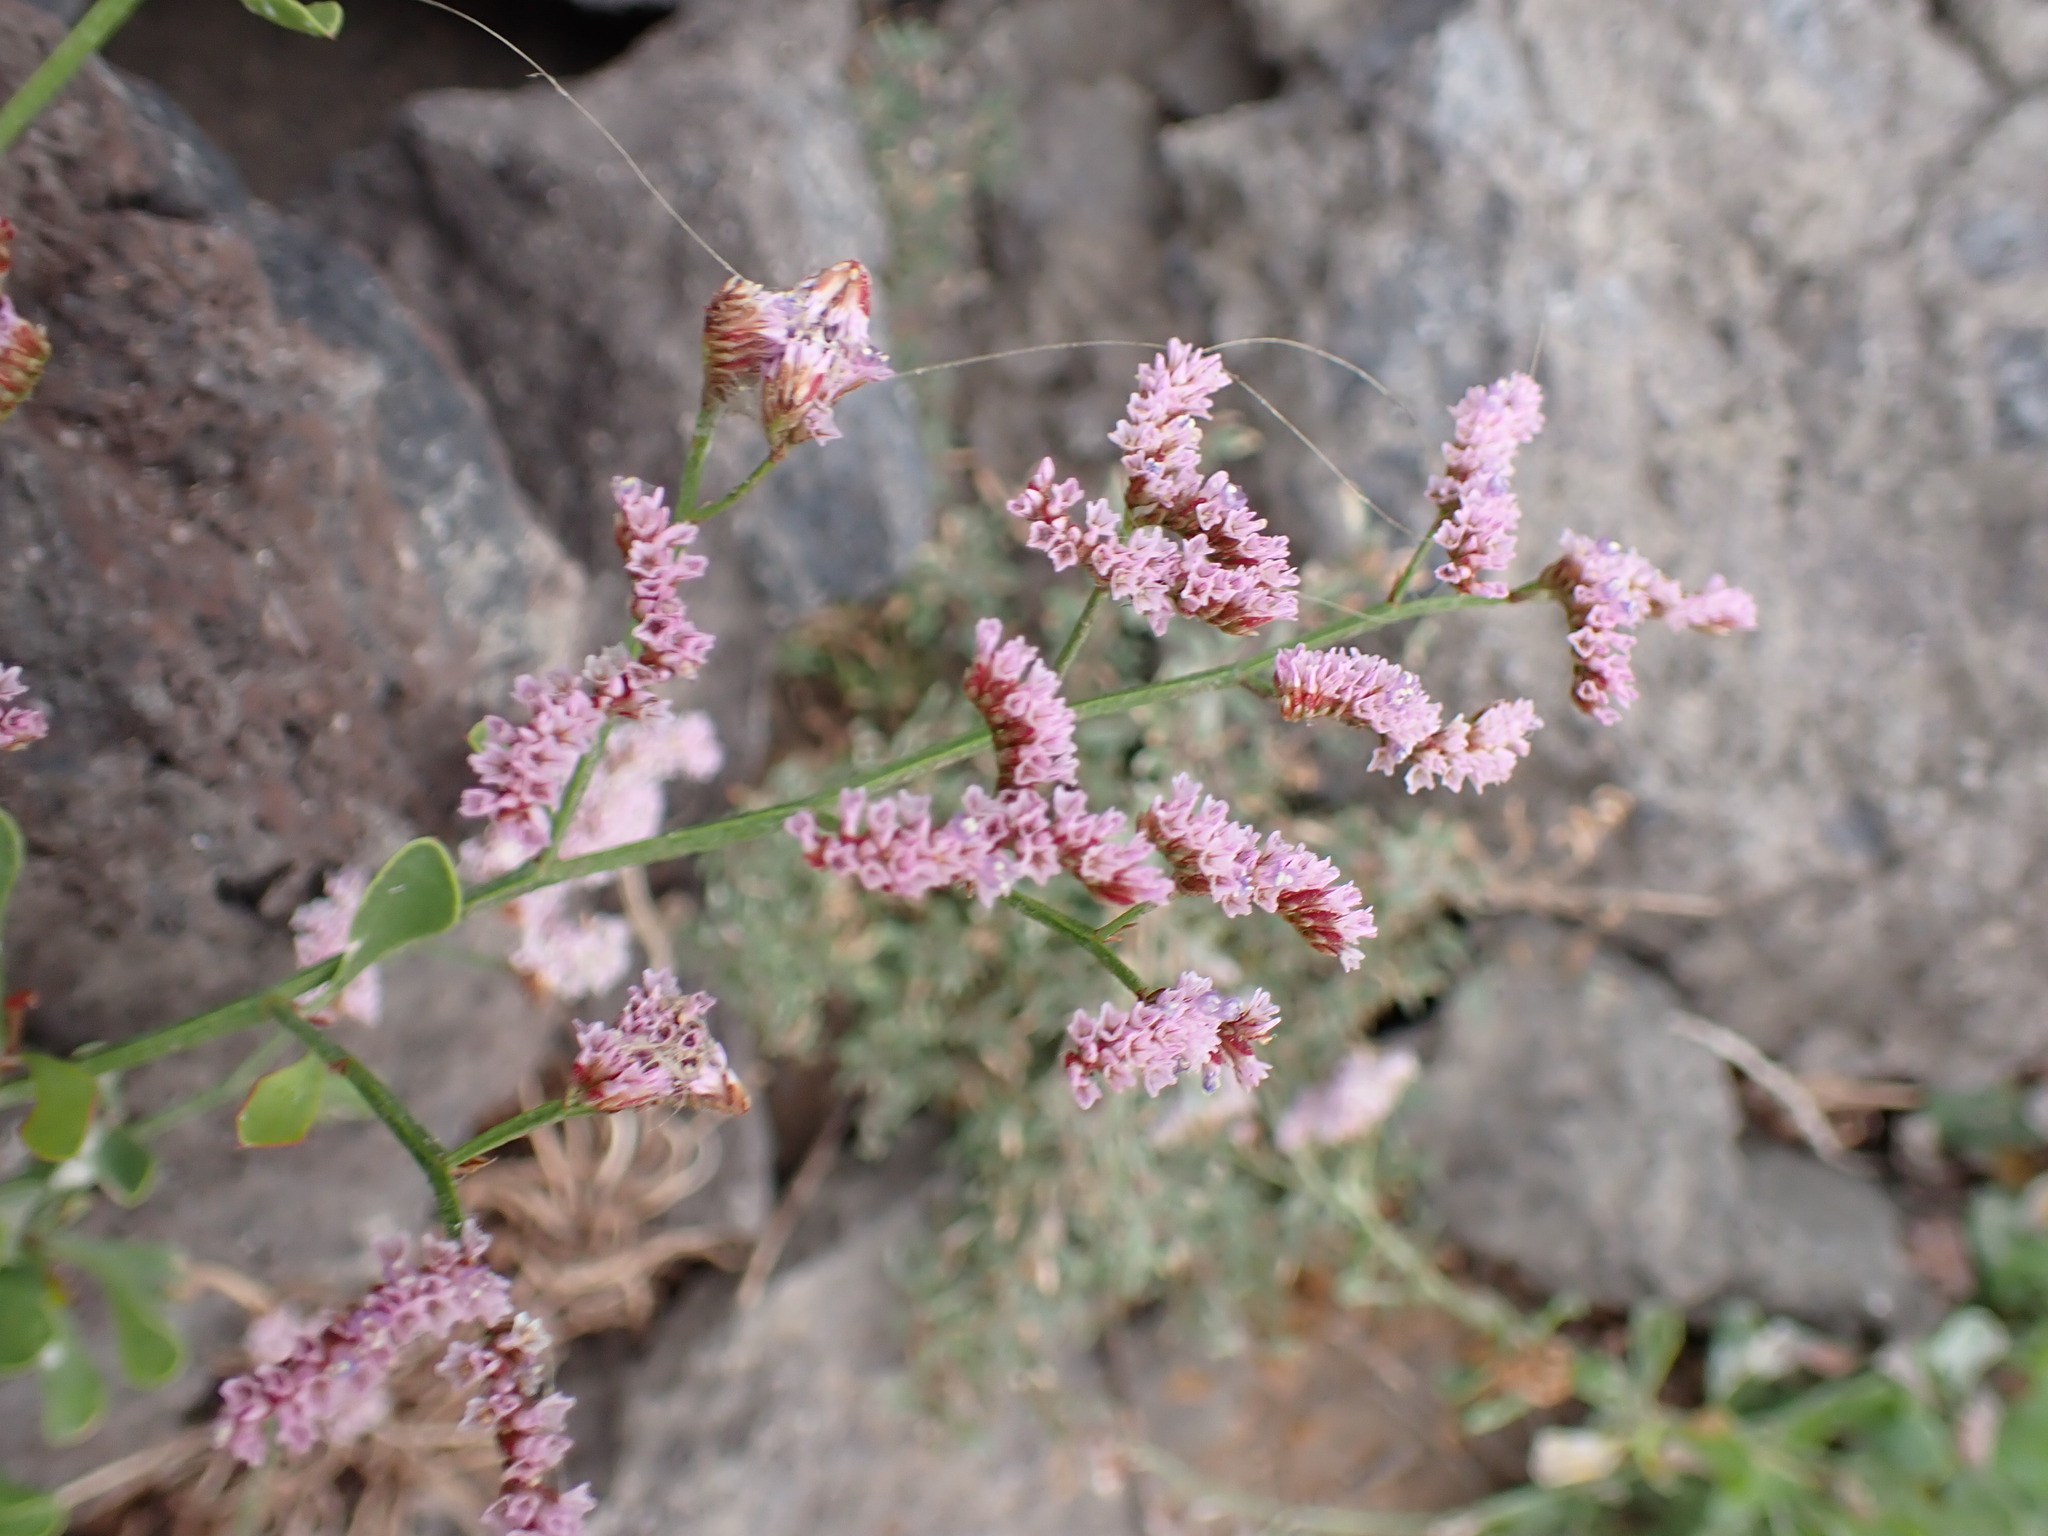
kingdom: Plantae
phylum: Tracheophyta
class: Magnoliopsida
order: Caryophyllales
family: Plumbaginaceae
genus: Limonium
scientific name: Limonium pectinatum
